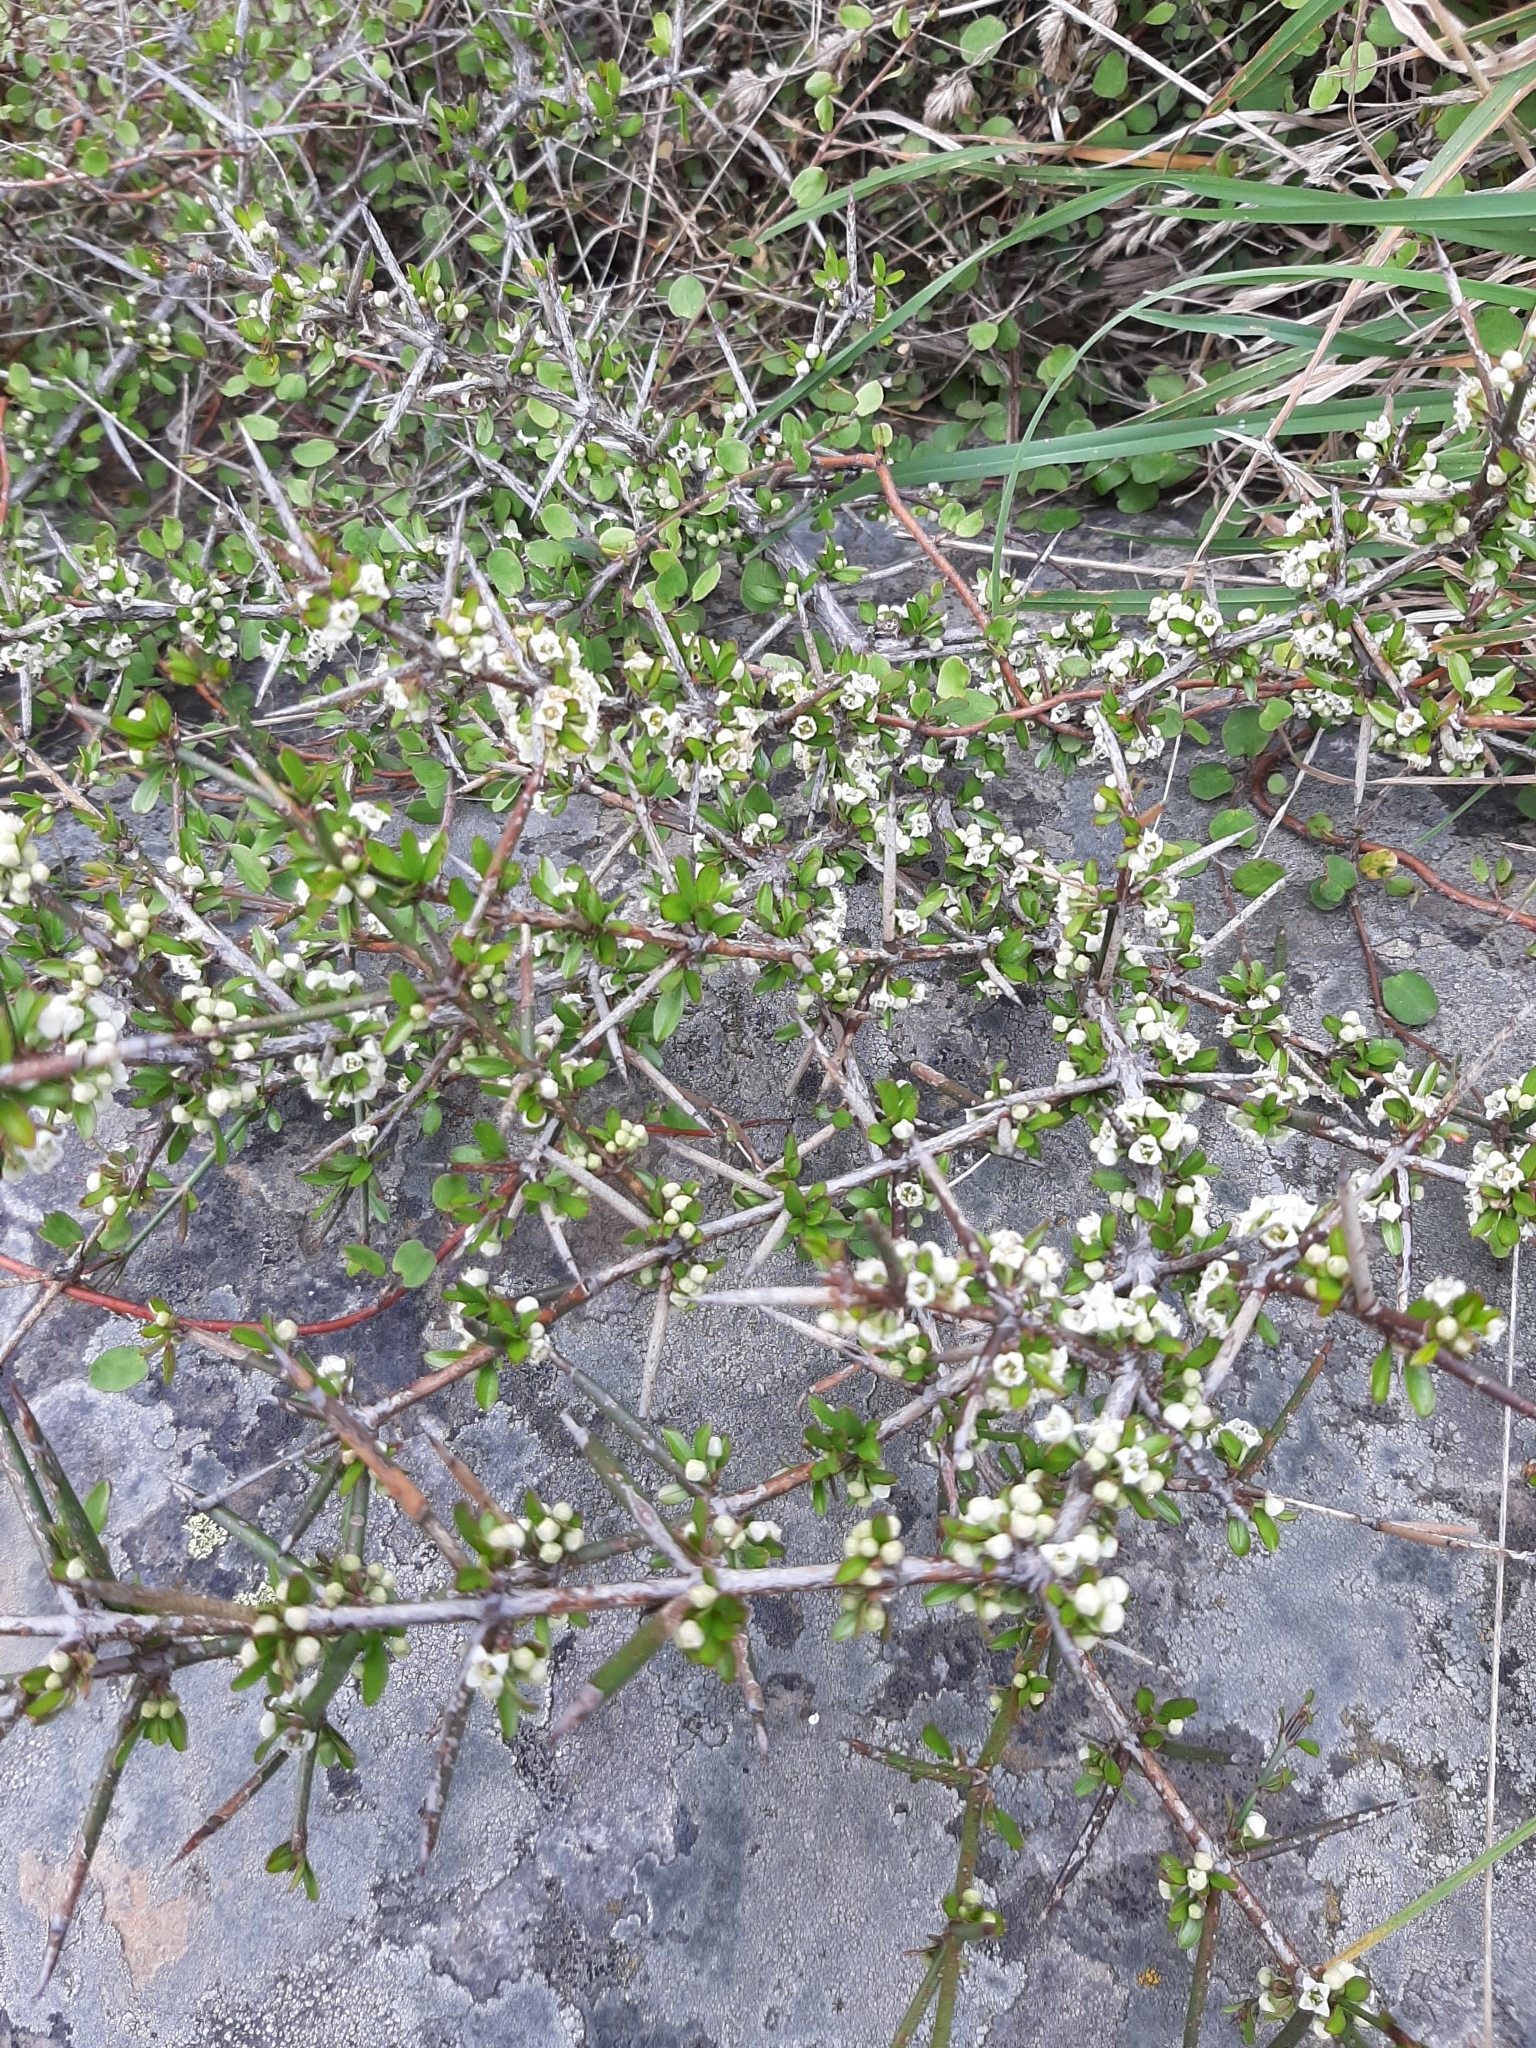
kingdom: Plantae
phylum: Tracheophyta
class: Magnoliopsida
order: Rosales
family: Rhamnaceae
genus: Discaria
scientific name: Discaria toumatou
